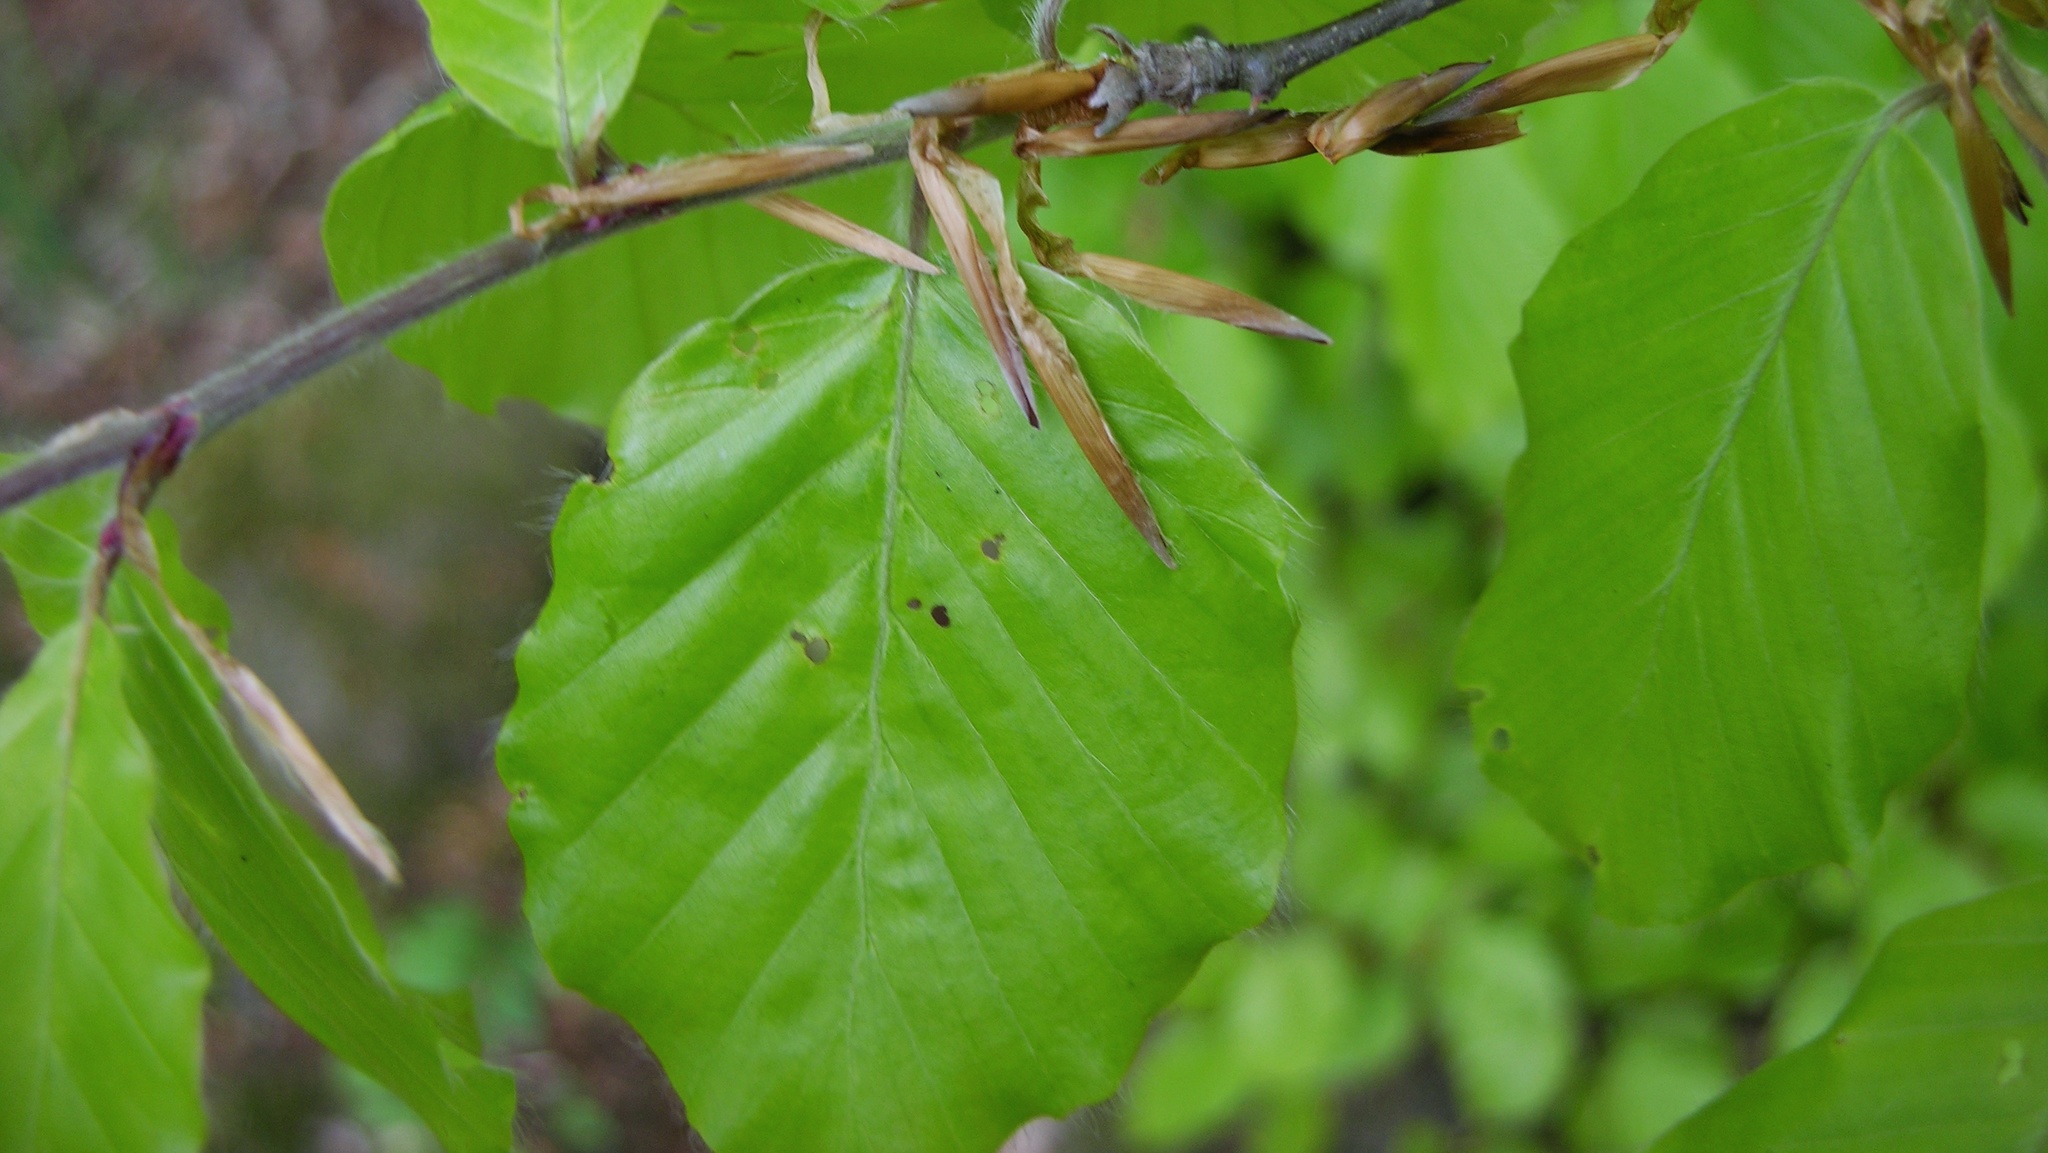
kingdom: Plantae
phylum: Tracheophyta
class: Magnoliopsida
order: Fagales
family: Fagaceae
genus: Fagus
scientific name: Fagus sylvatica
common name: Beech
